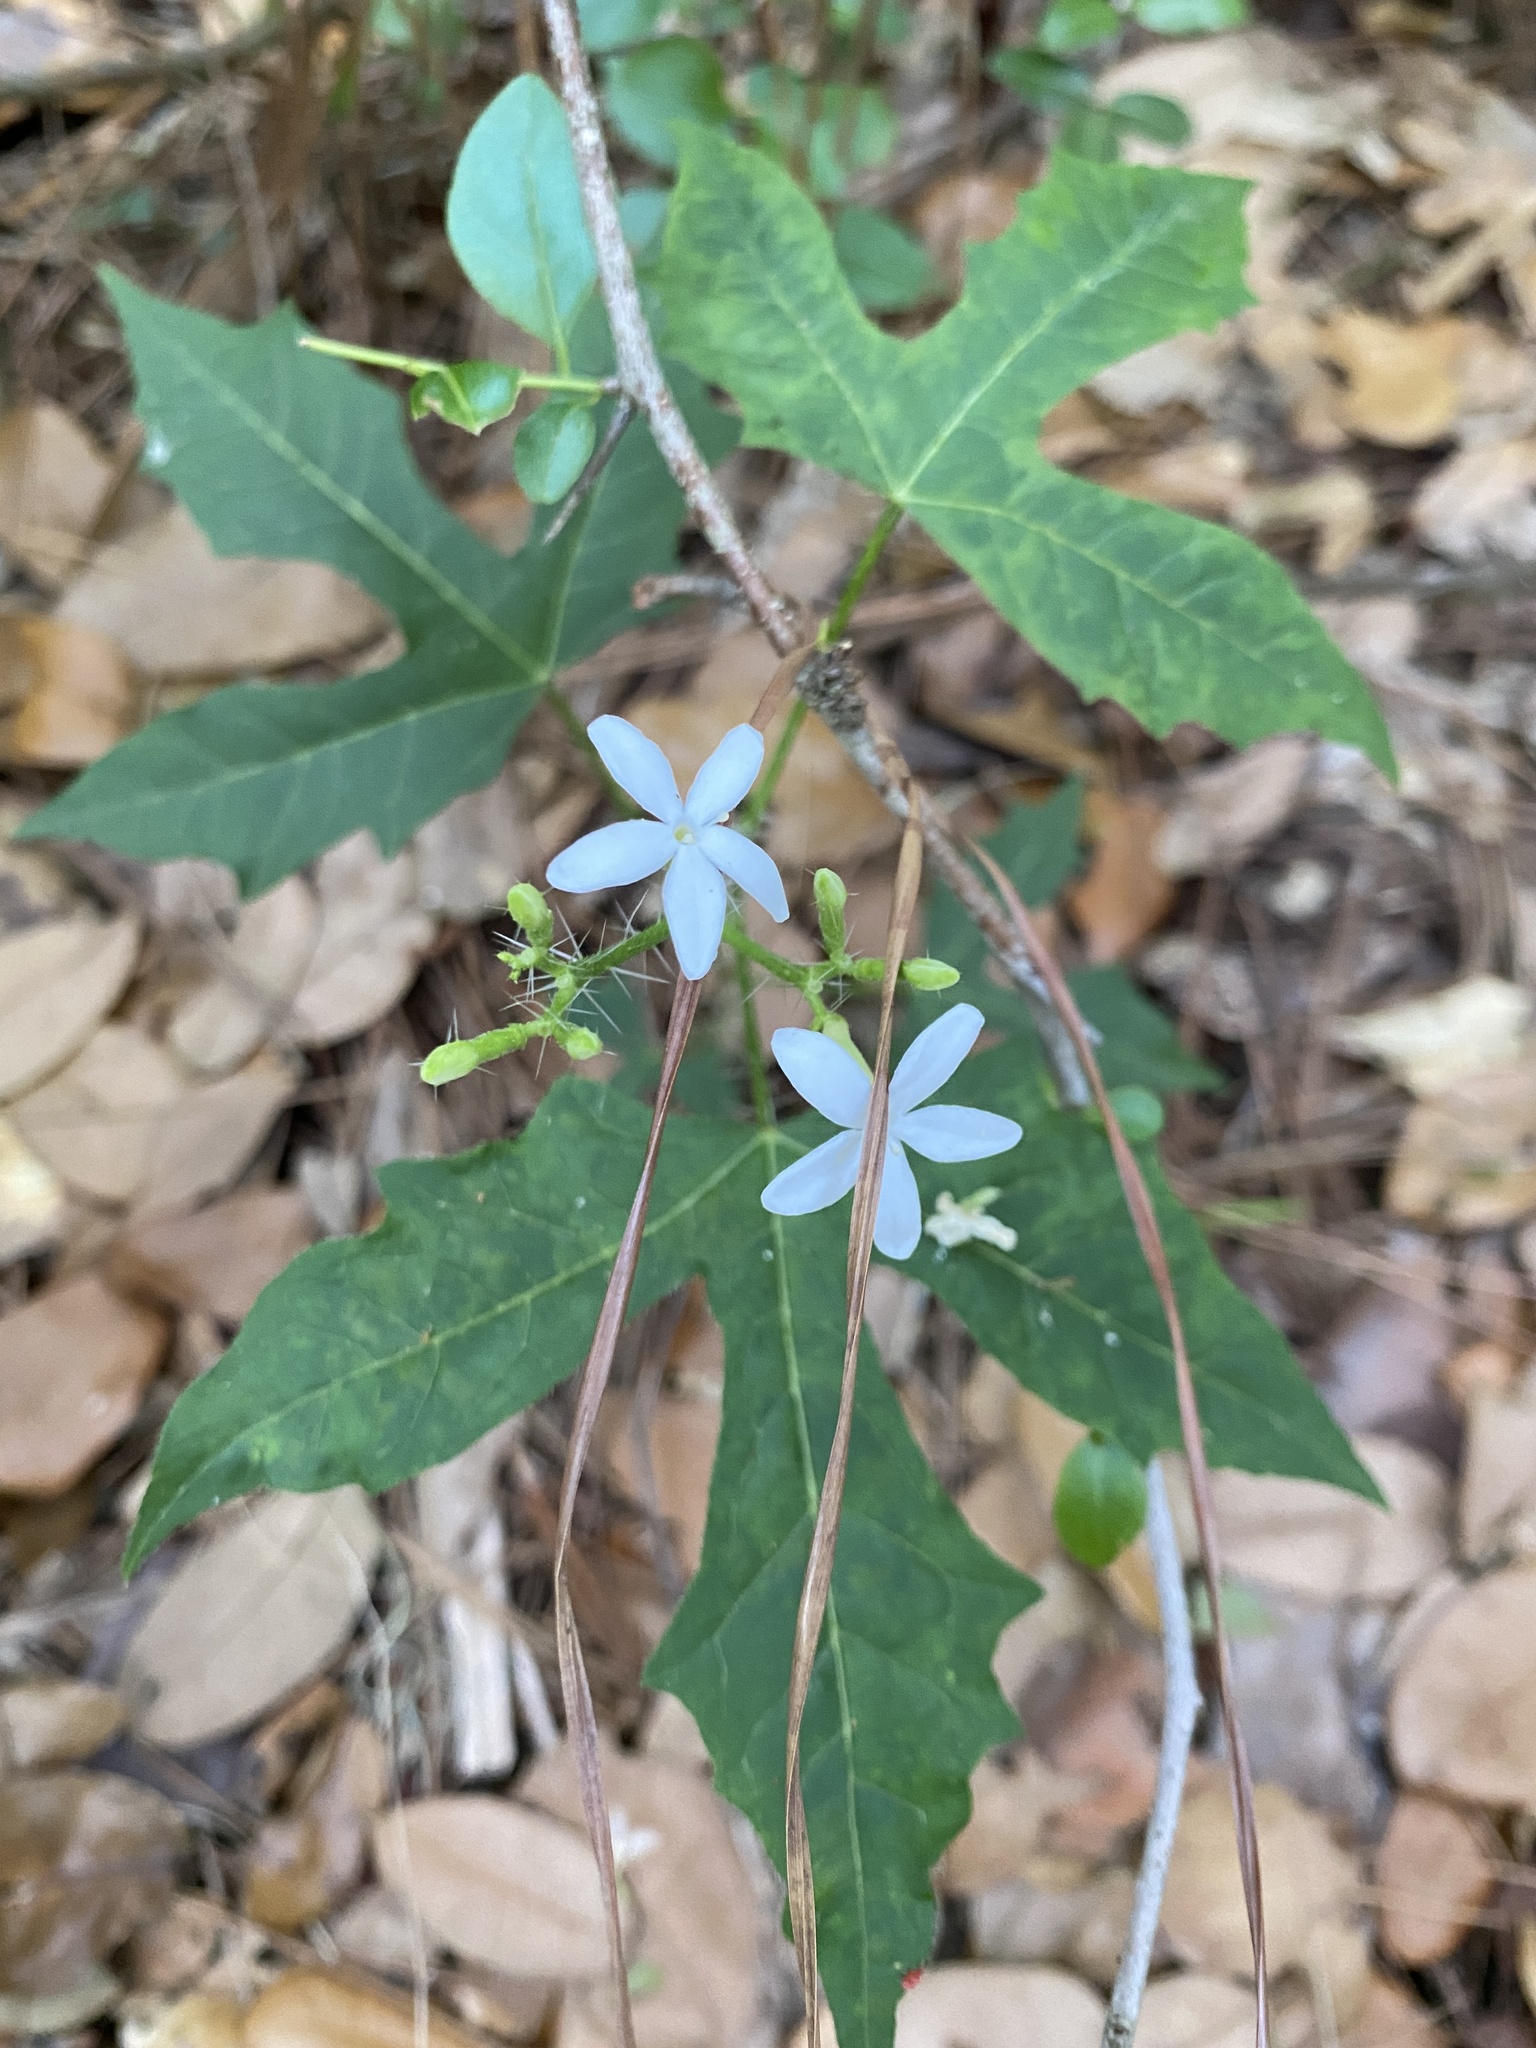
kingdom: Plantae
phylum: Tracheophyta
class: Magnoliopsida
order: Malpighiales
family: Euphorbiaceae
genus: Cnidoscolus
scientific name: Cnidoscolus stimulosus
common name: Bull-nettle
